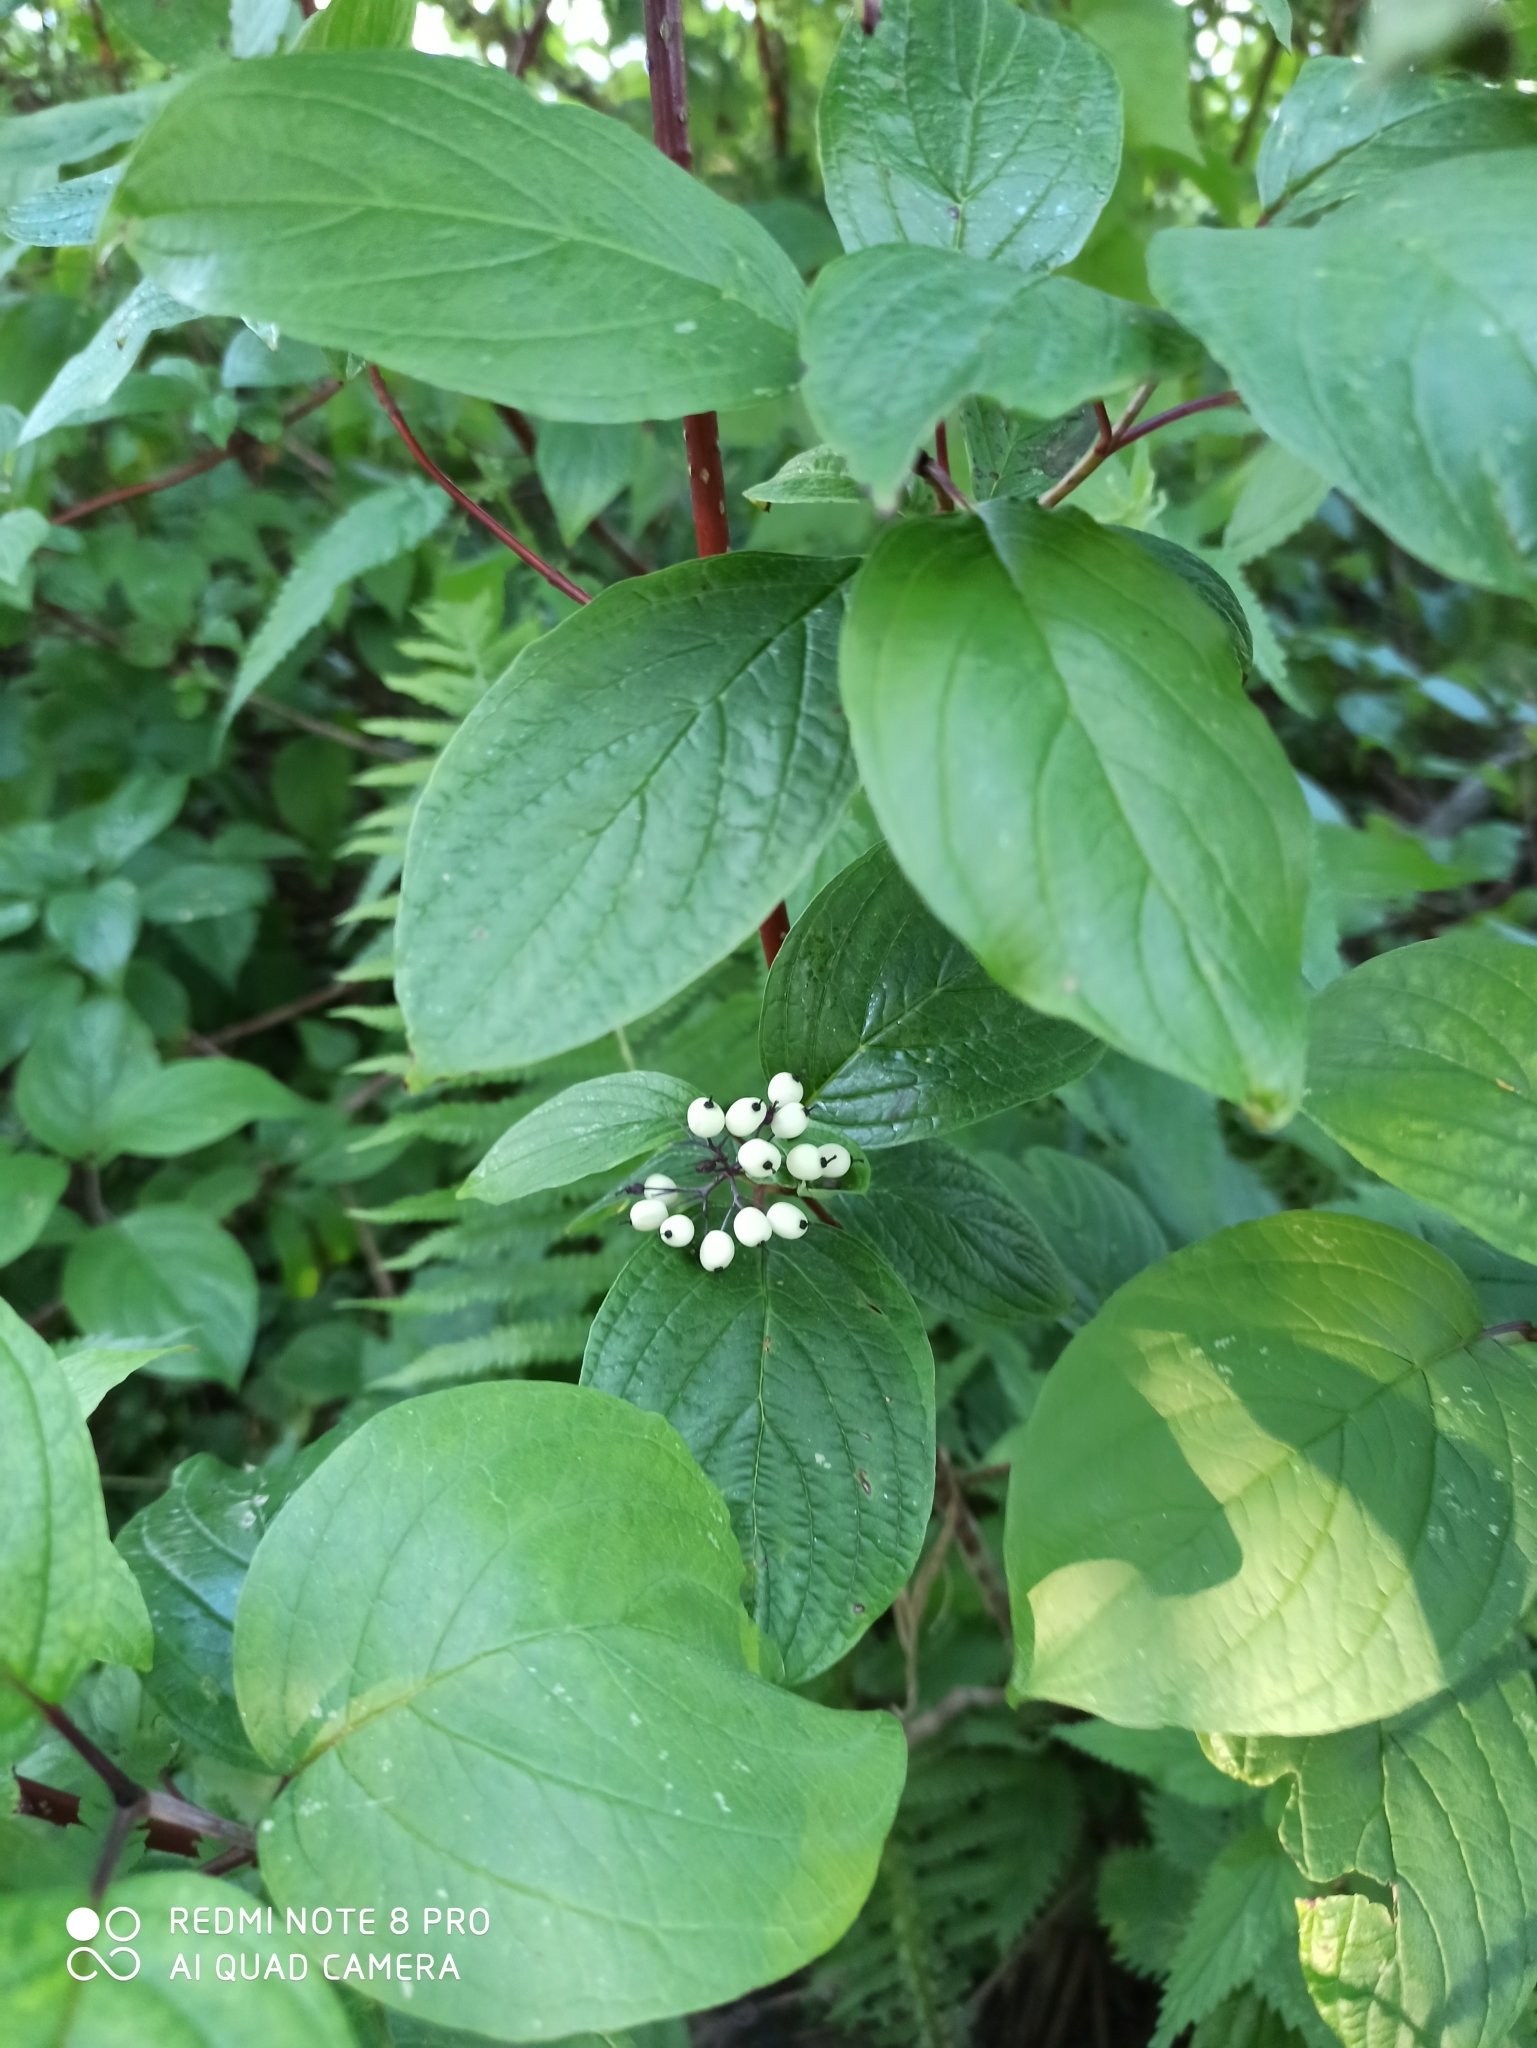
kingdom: Plantae
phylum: Tracheophyta
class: Magnoliopsida
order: Cornales
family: Cornaceae
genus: Cornus
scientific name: Cornus alba
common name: White dogwood
